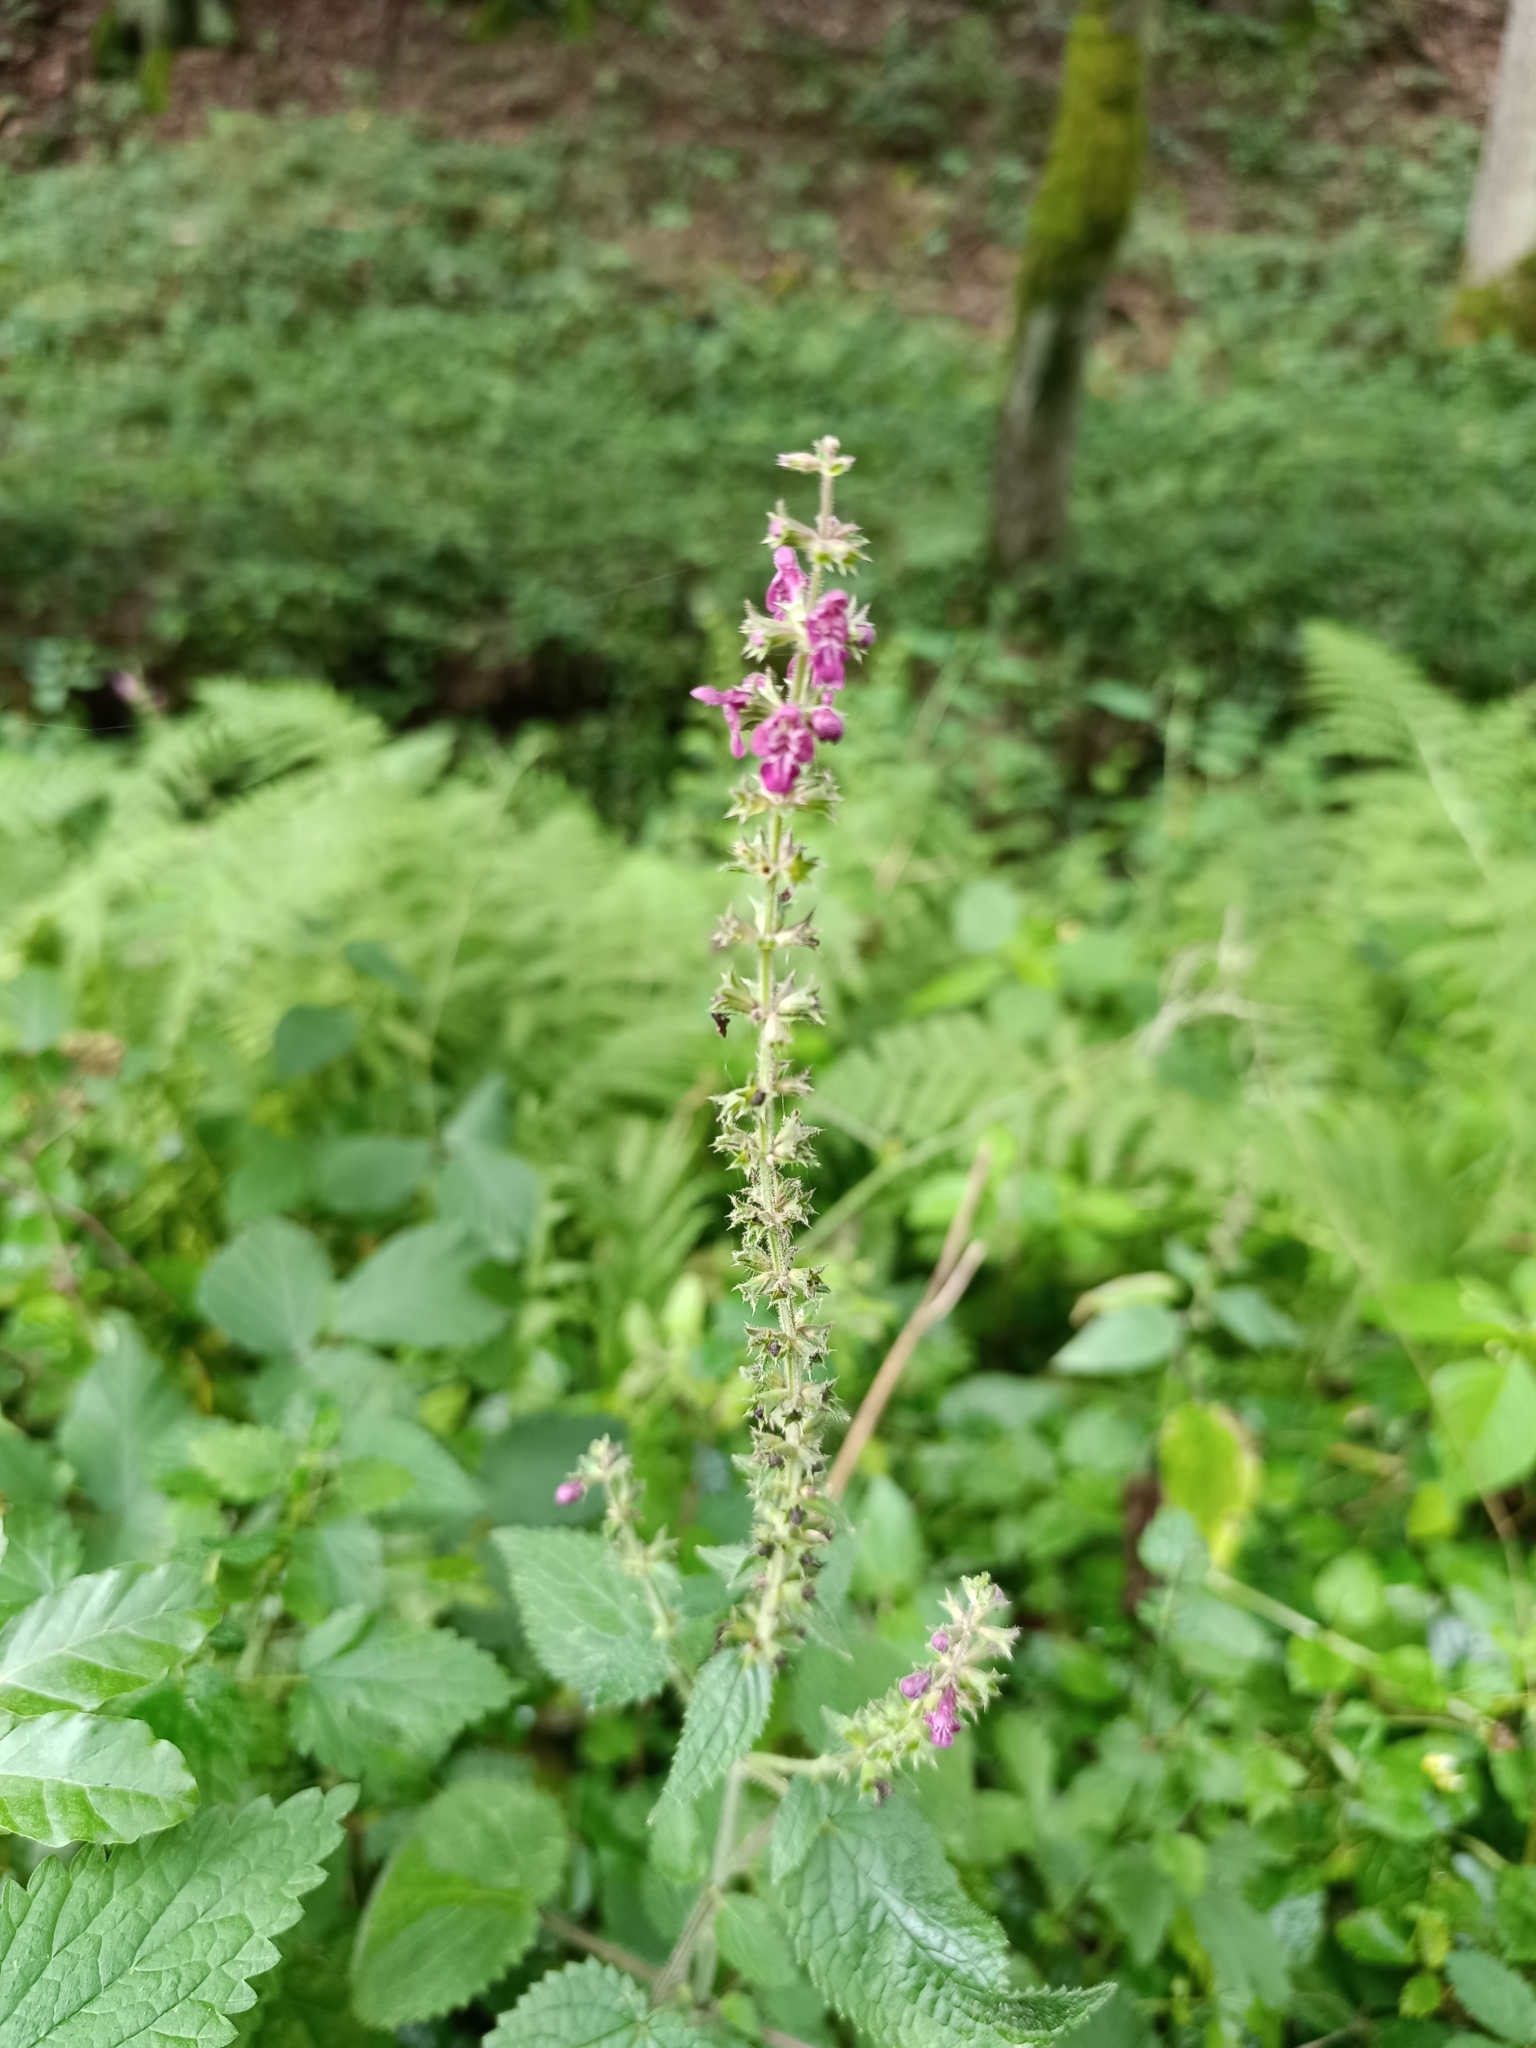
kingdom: Plantae
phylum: Tracheophyta
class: Magnoliopsida
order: Lamiales
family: Lamiaceae
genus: Stachys
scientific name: Stachys sylvatica
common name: Hedge woundwort
